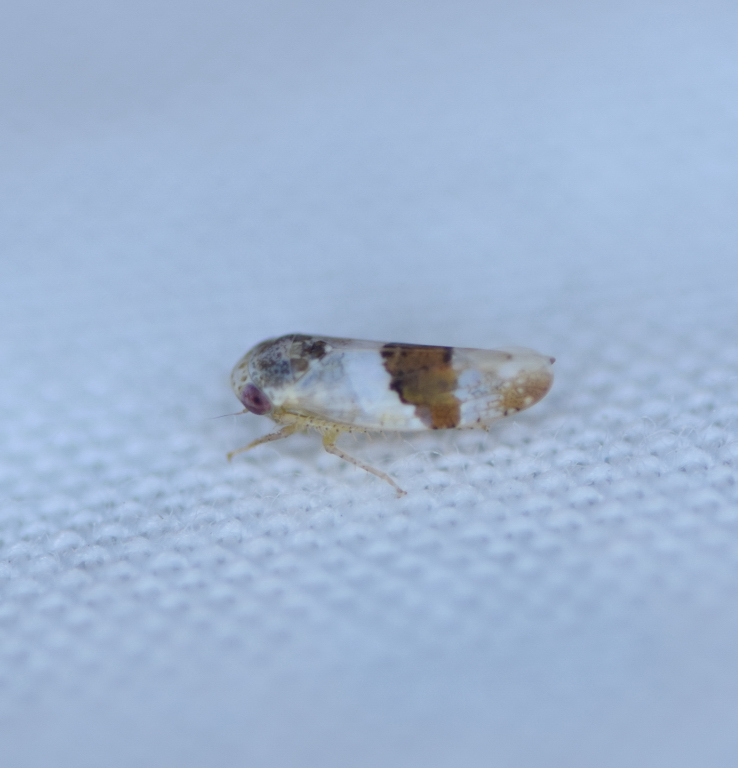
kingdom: Animalia
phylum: Arthropoda
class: Insecta
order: Hemiptera
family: Cicadellidae
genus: Norvellina
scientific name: Norvellina seminuda
